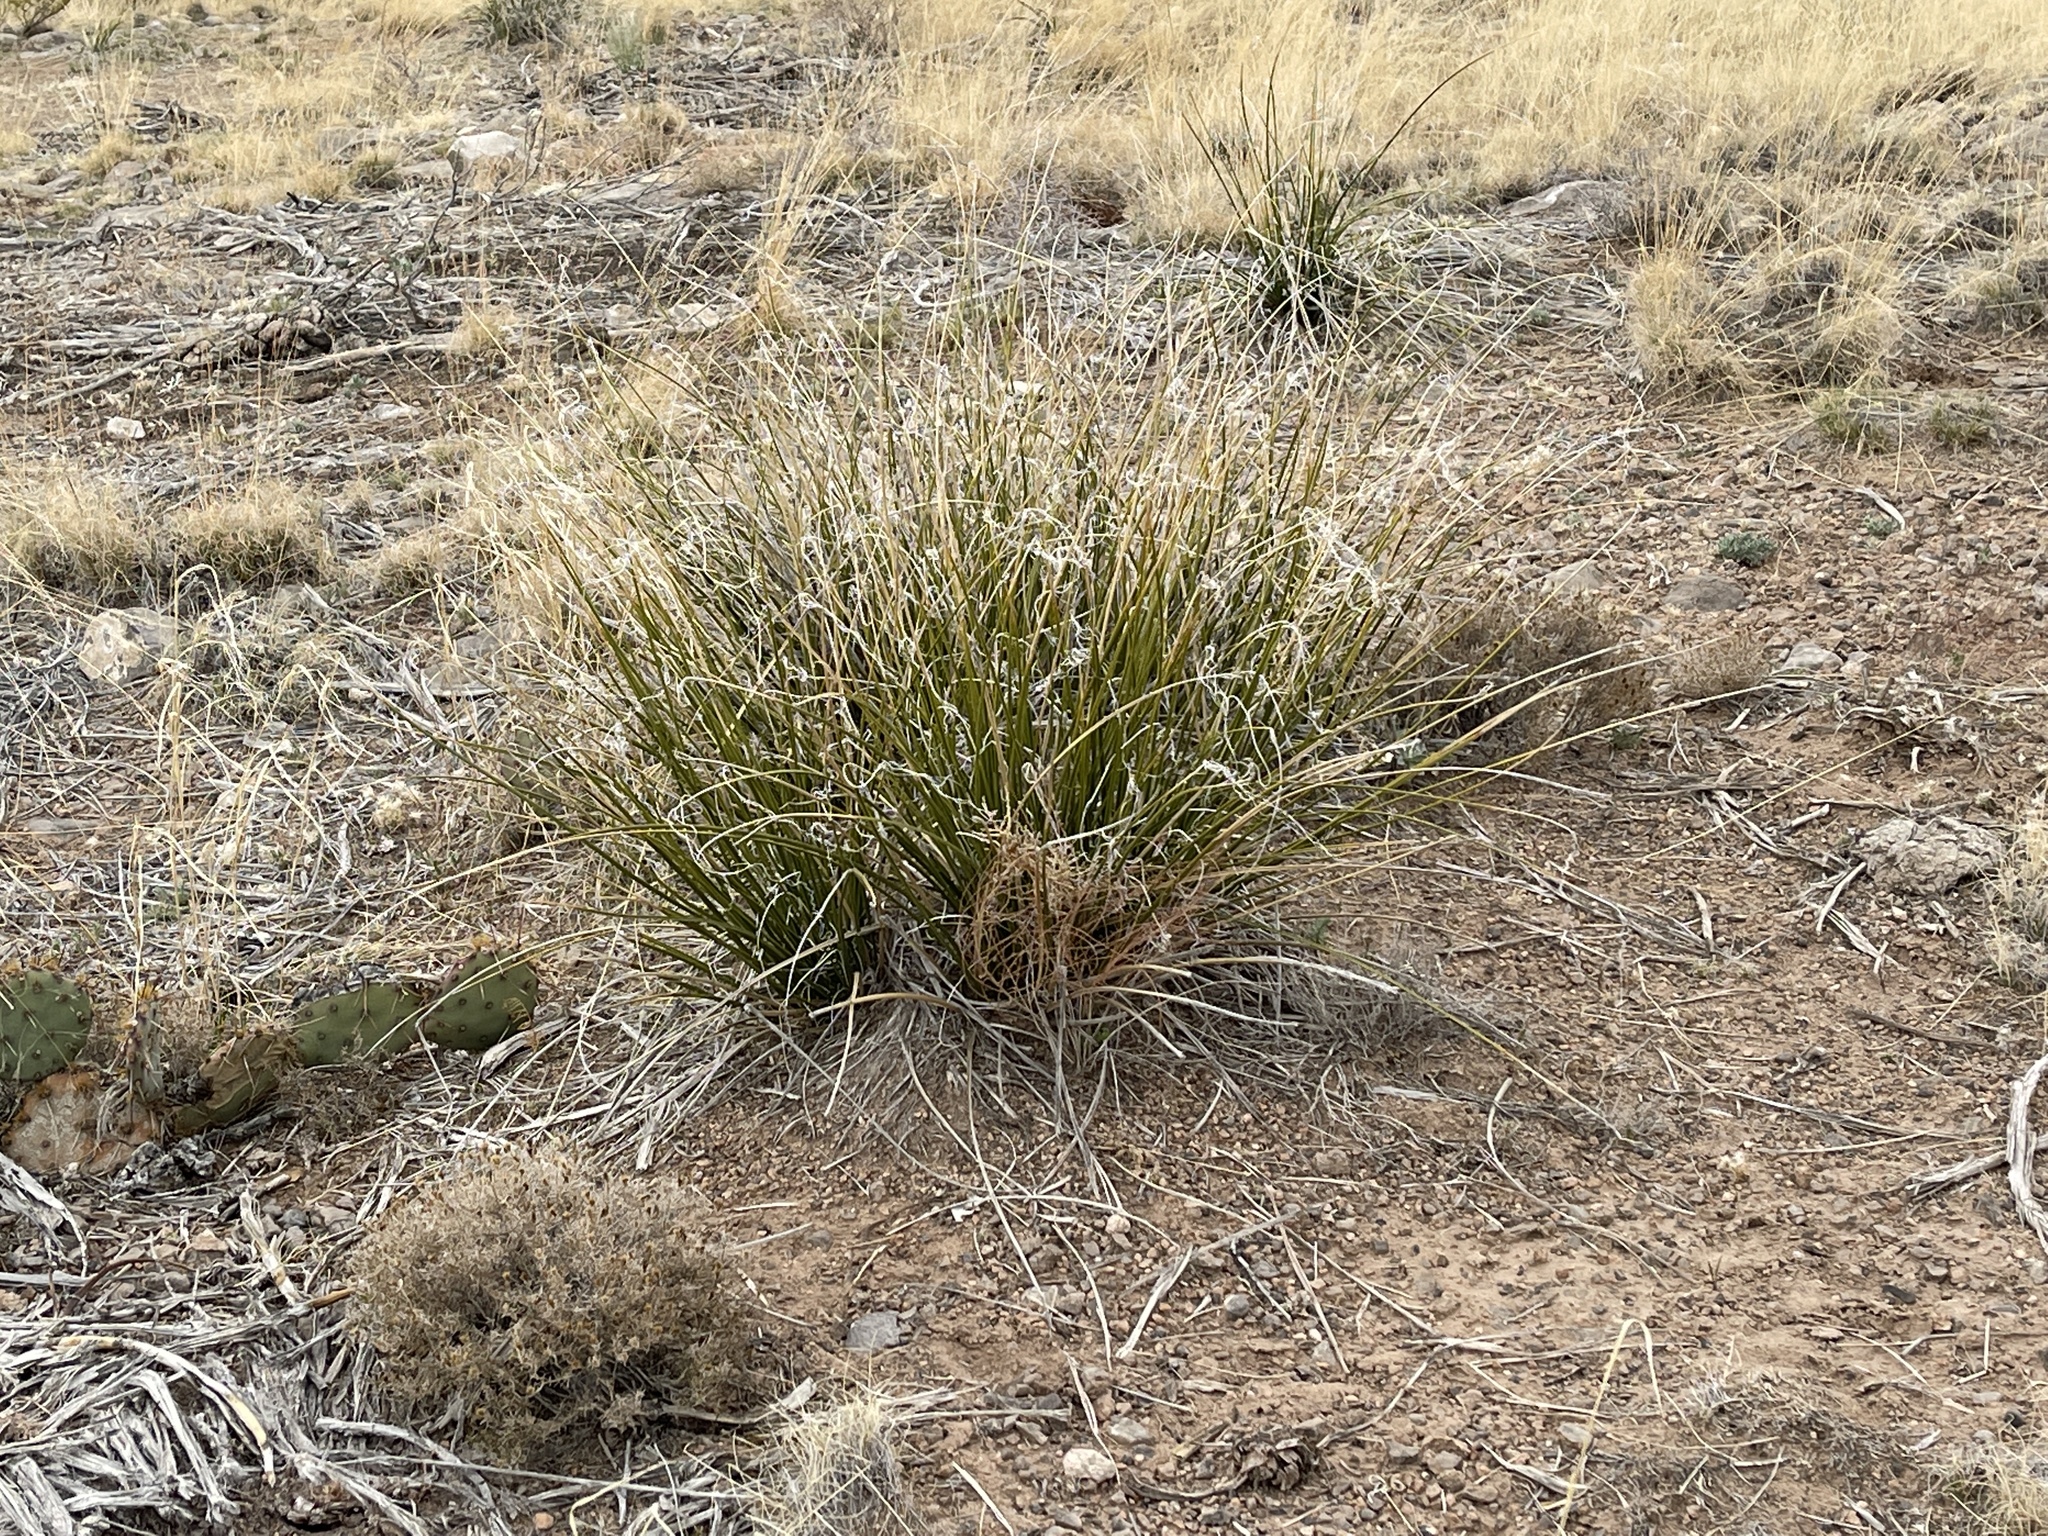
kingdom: Plantae
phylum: Tracheophyta
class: Liliopsida
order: Asparagales
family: Asparagaceae
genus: Nolina
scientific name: Nolina texana
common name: Texas sacahuiste
